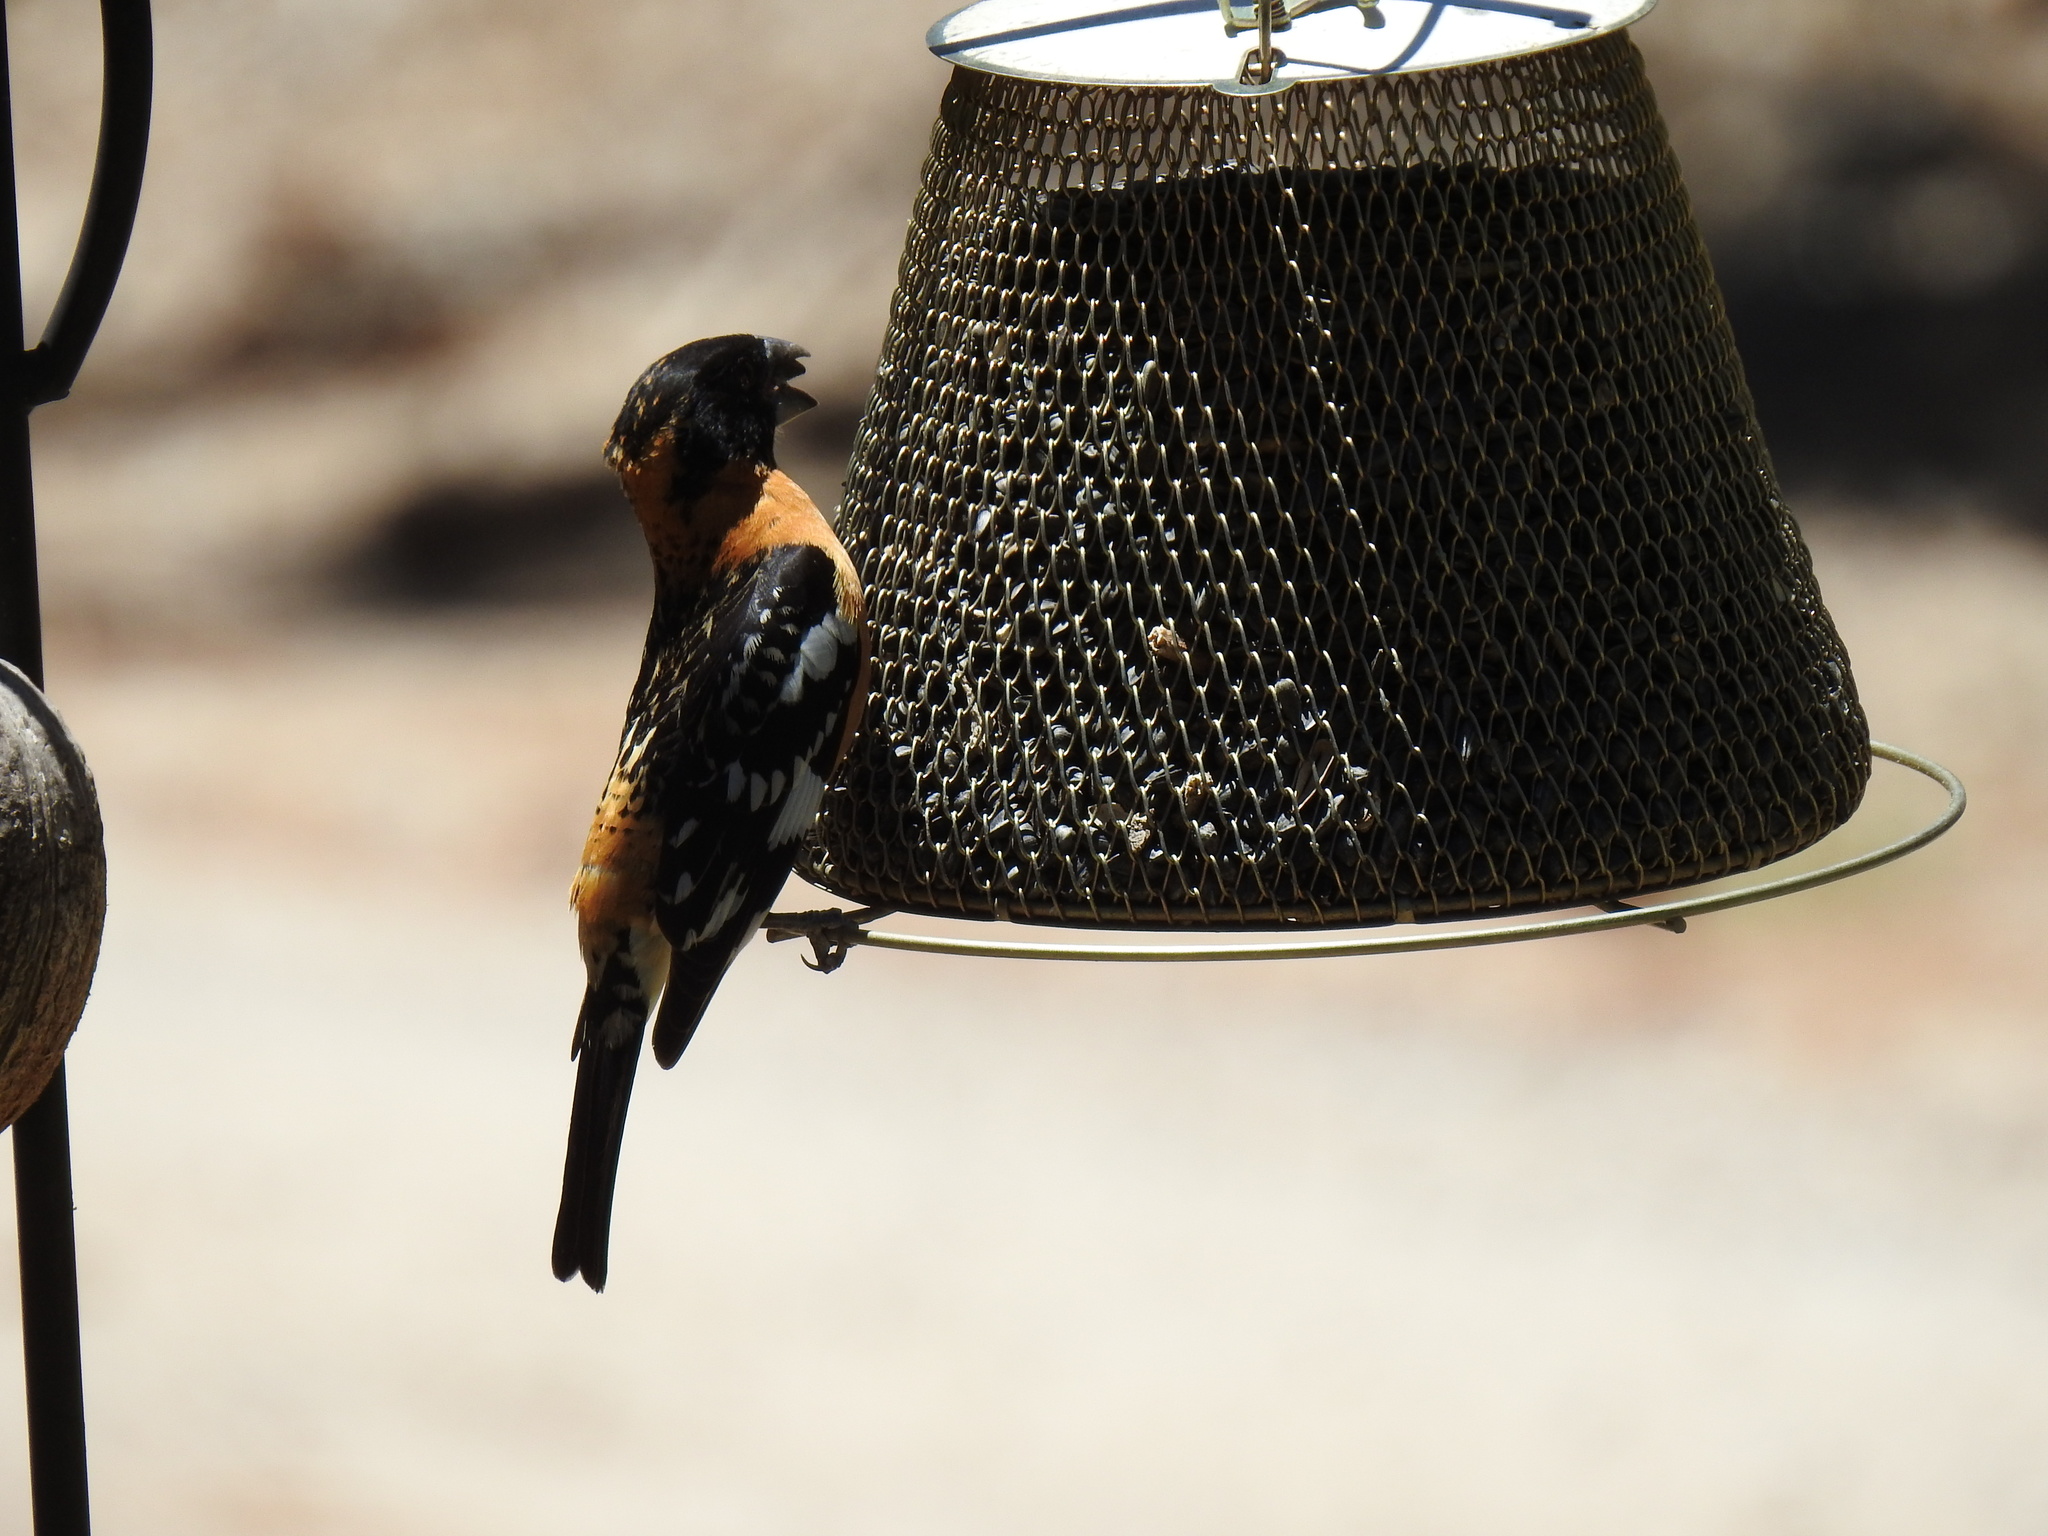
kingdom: Animalia
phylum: Chordata
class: Aves
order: Passeriformes
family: Cardinalidae
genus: Pheucticus
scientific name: Pheucticus melanocephalus
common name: Black-headed grosbeak
